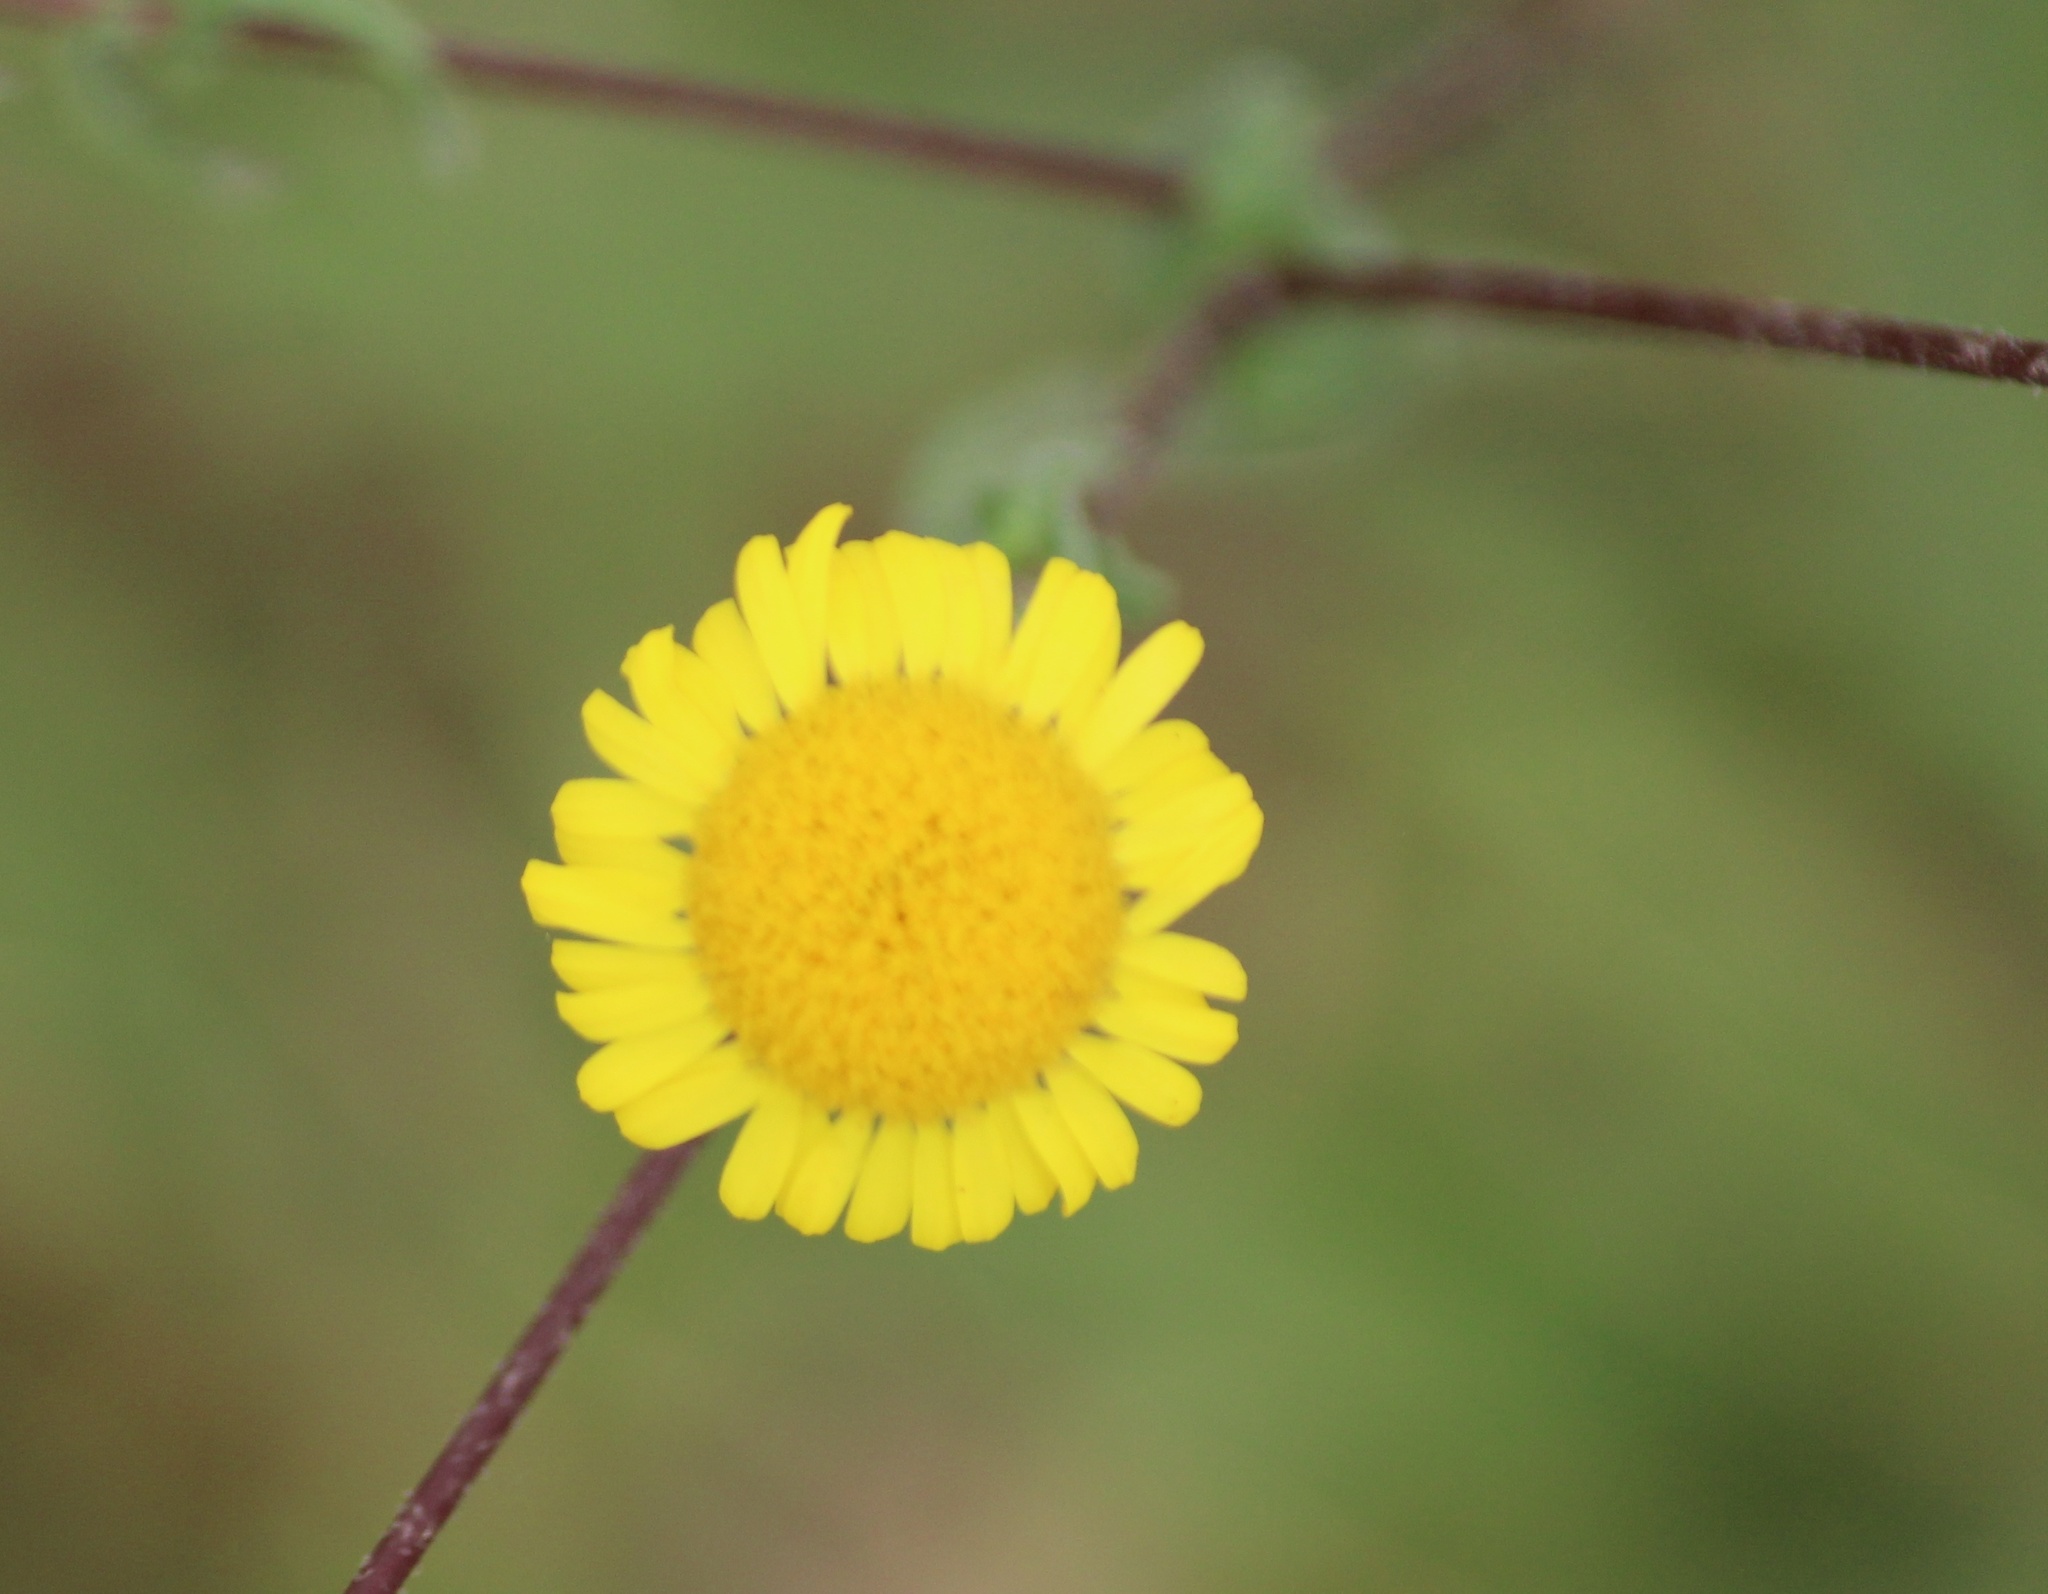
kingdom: Plantae
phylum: Tracheophyta
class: Magnoliopsida
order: Asterales
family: Asteraceae
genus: Vicoa
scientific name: Vicoa indica
